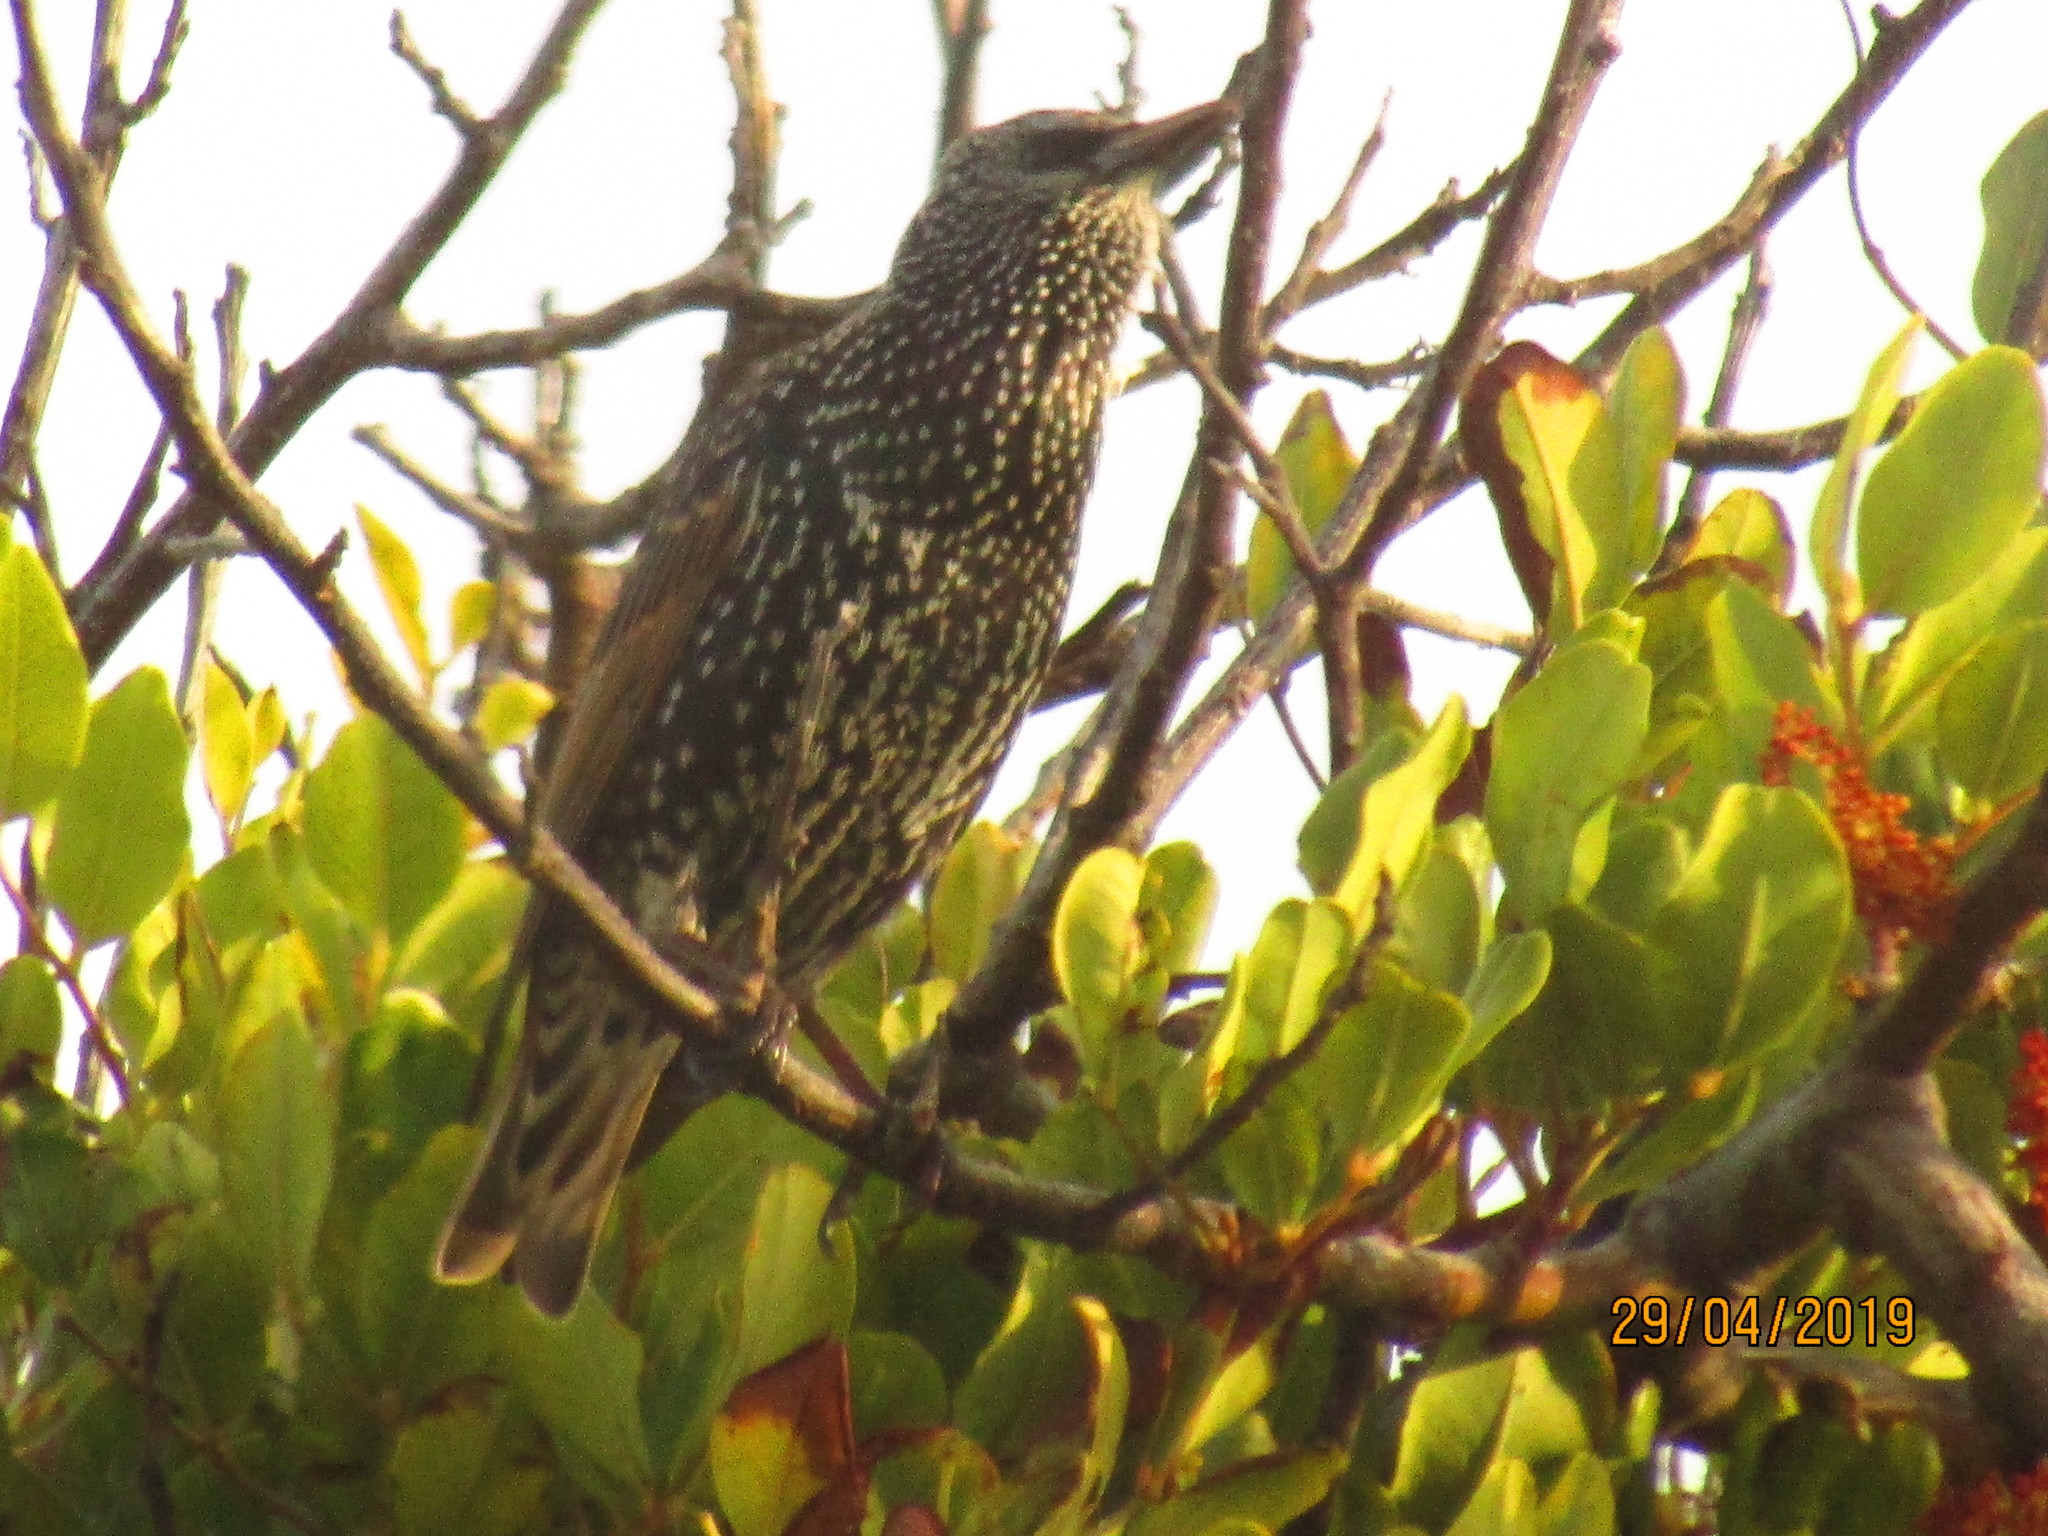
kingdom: Animalia
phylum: Chordata
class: Aves
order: Passeriformes
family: Sturnidae
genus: Sturnus
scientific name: Sturnus vulgaris
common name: Common starling
